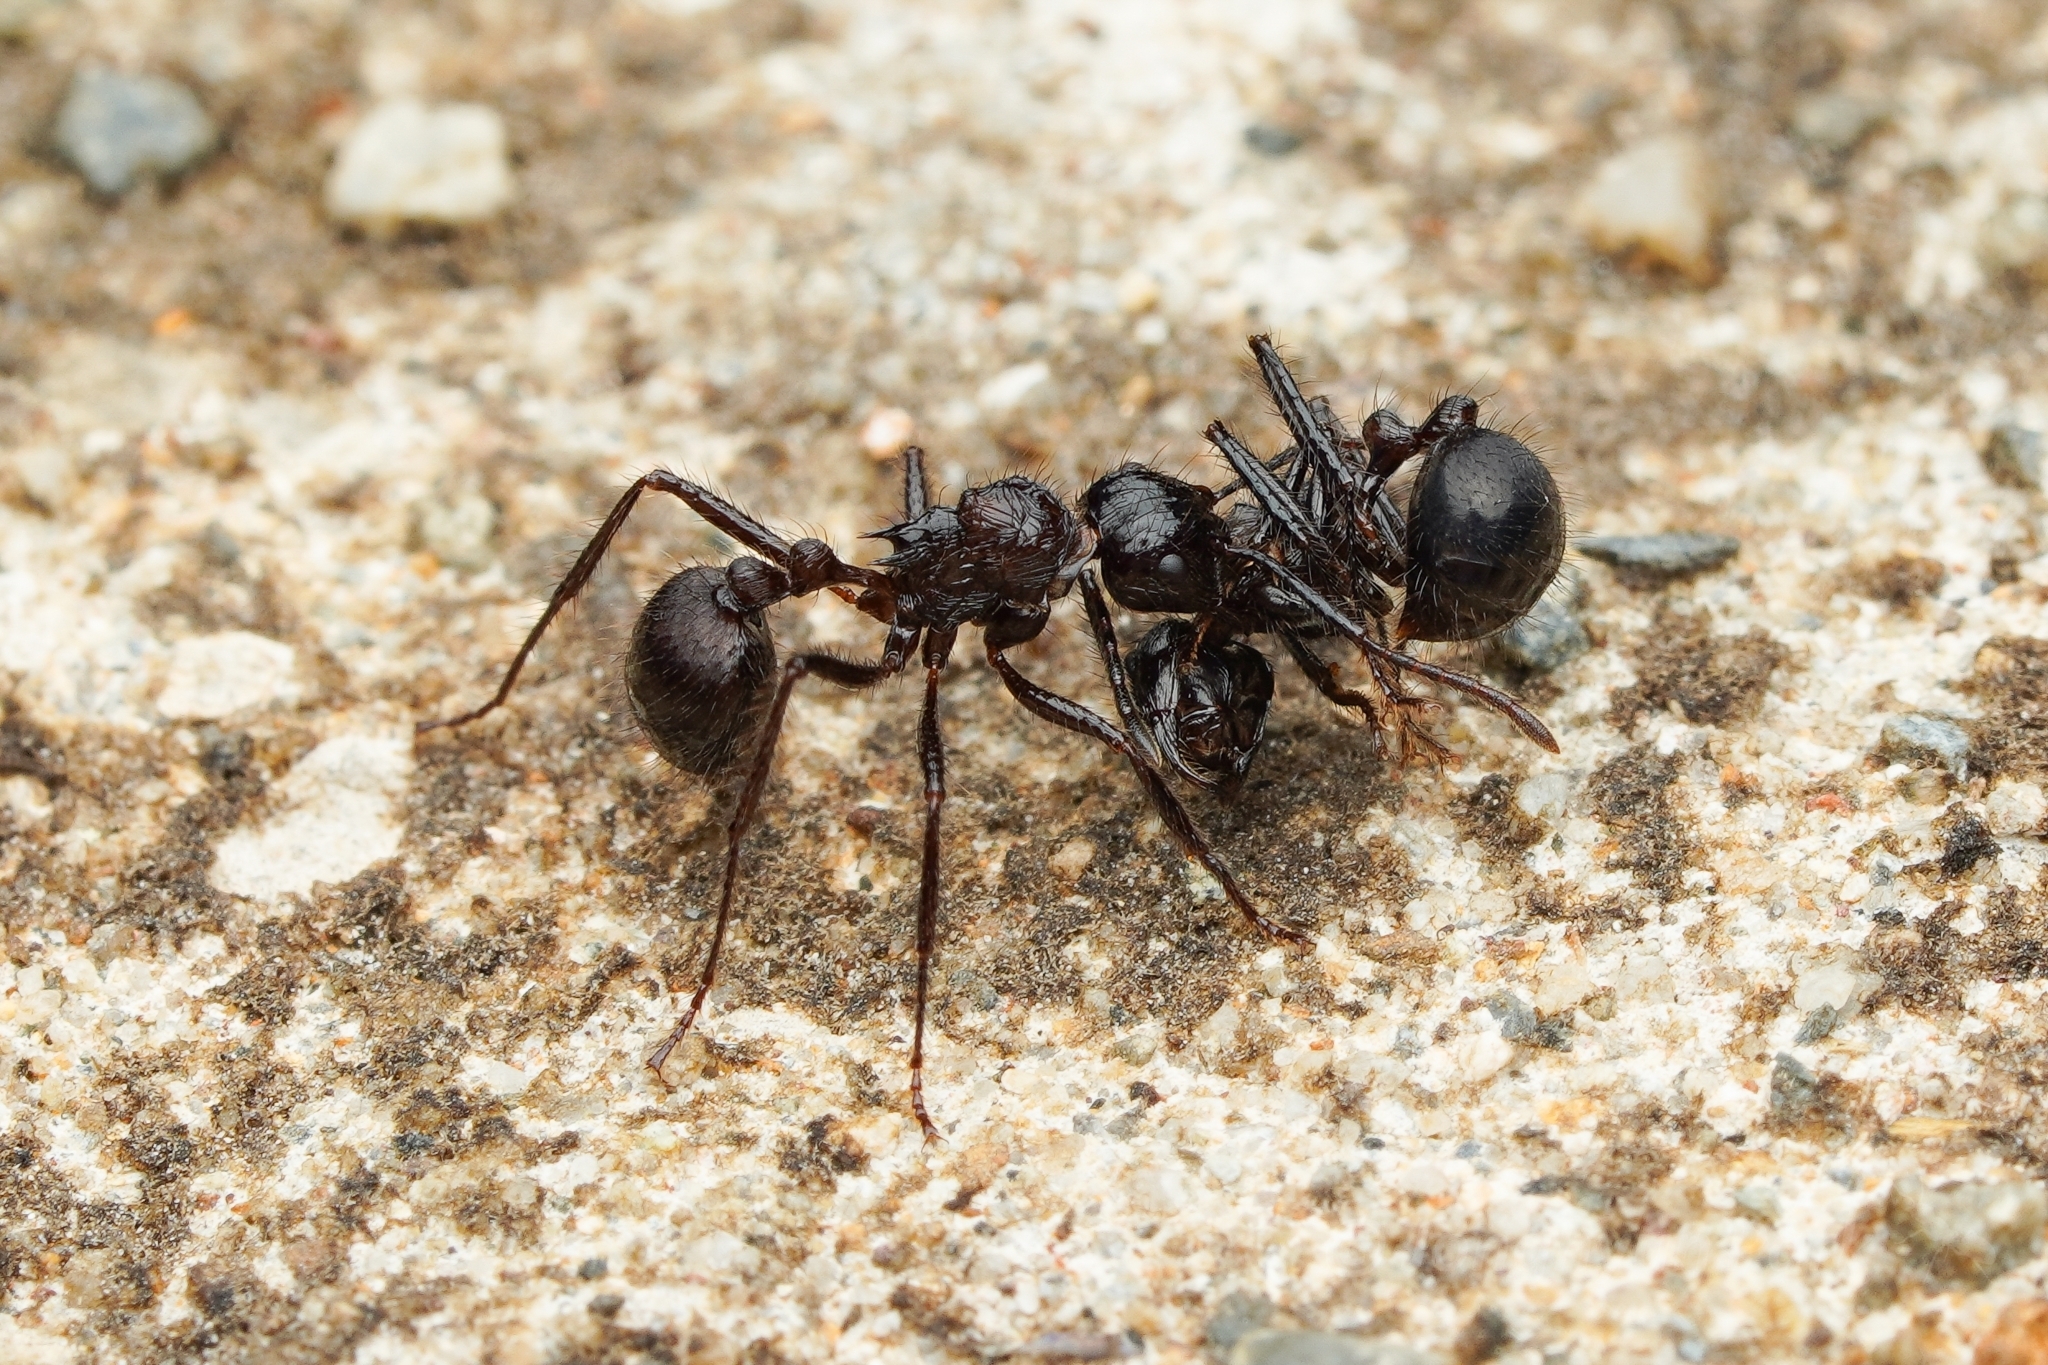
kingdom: Animalia
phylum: Arthropoda
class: Insecta
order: Hymenoptera
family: Formicidae
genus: Myrmicaria
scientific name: Myrmicaria carinata
